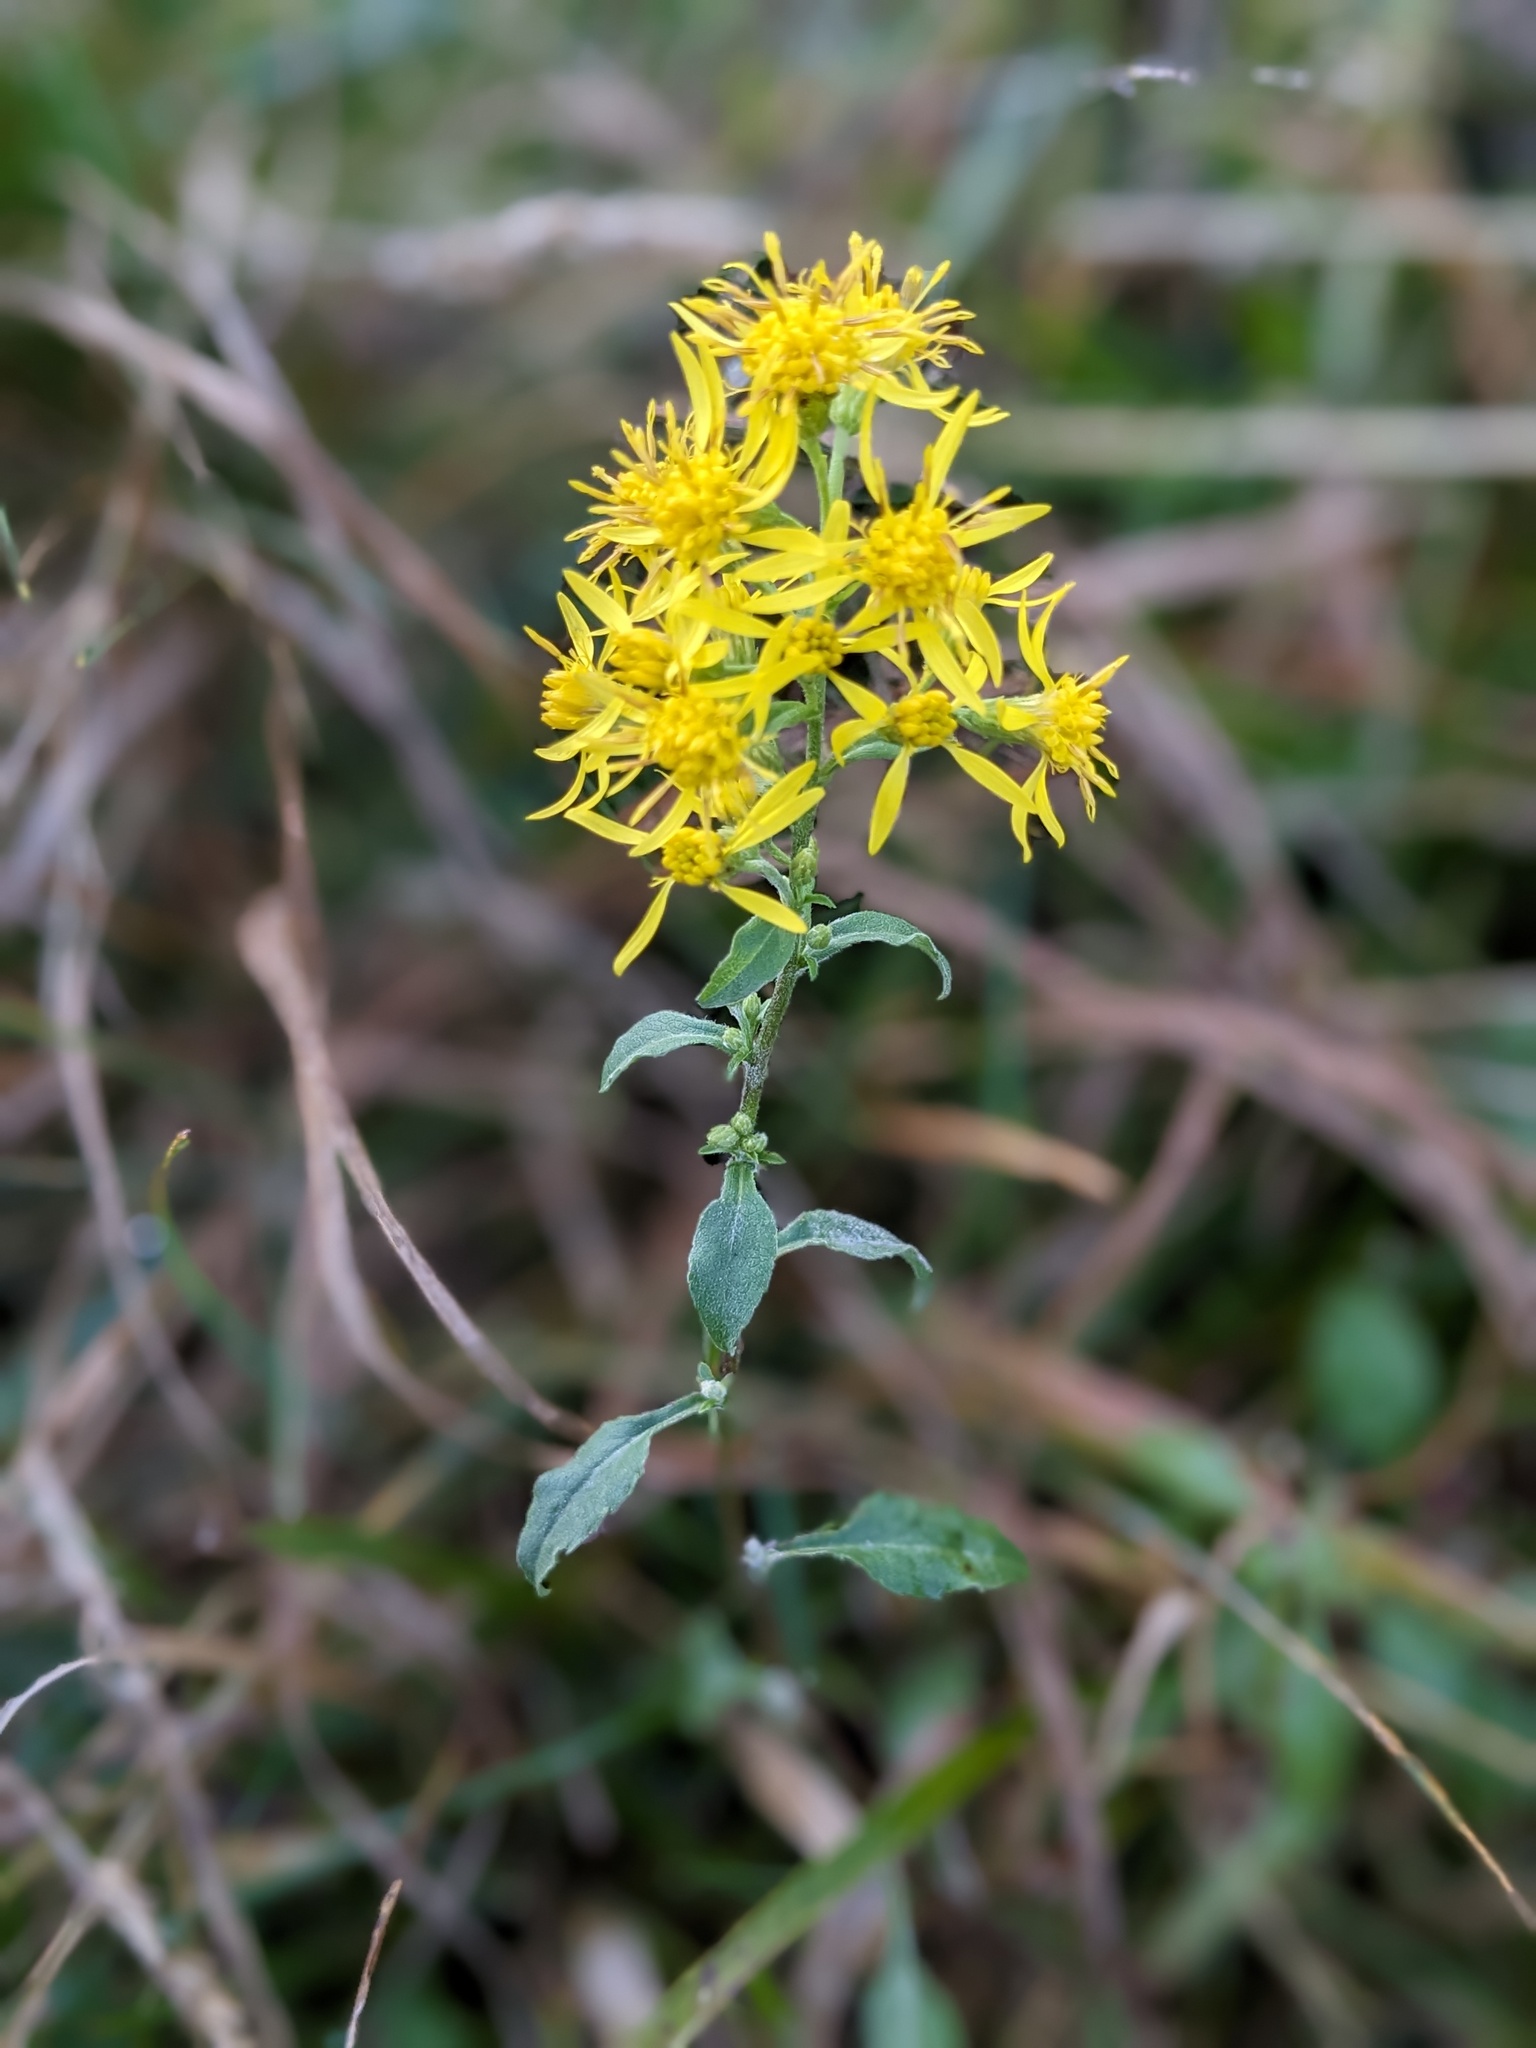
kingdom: Plantae
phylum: Tracheophyta
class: Magnoliopsida
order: Asterales
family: Asteraceae
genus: Solidago
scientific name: Solidago virgaurea
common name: Goldenrod
